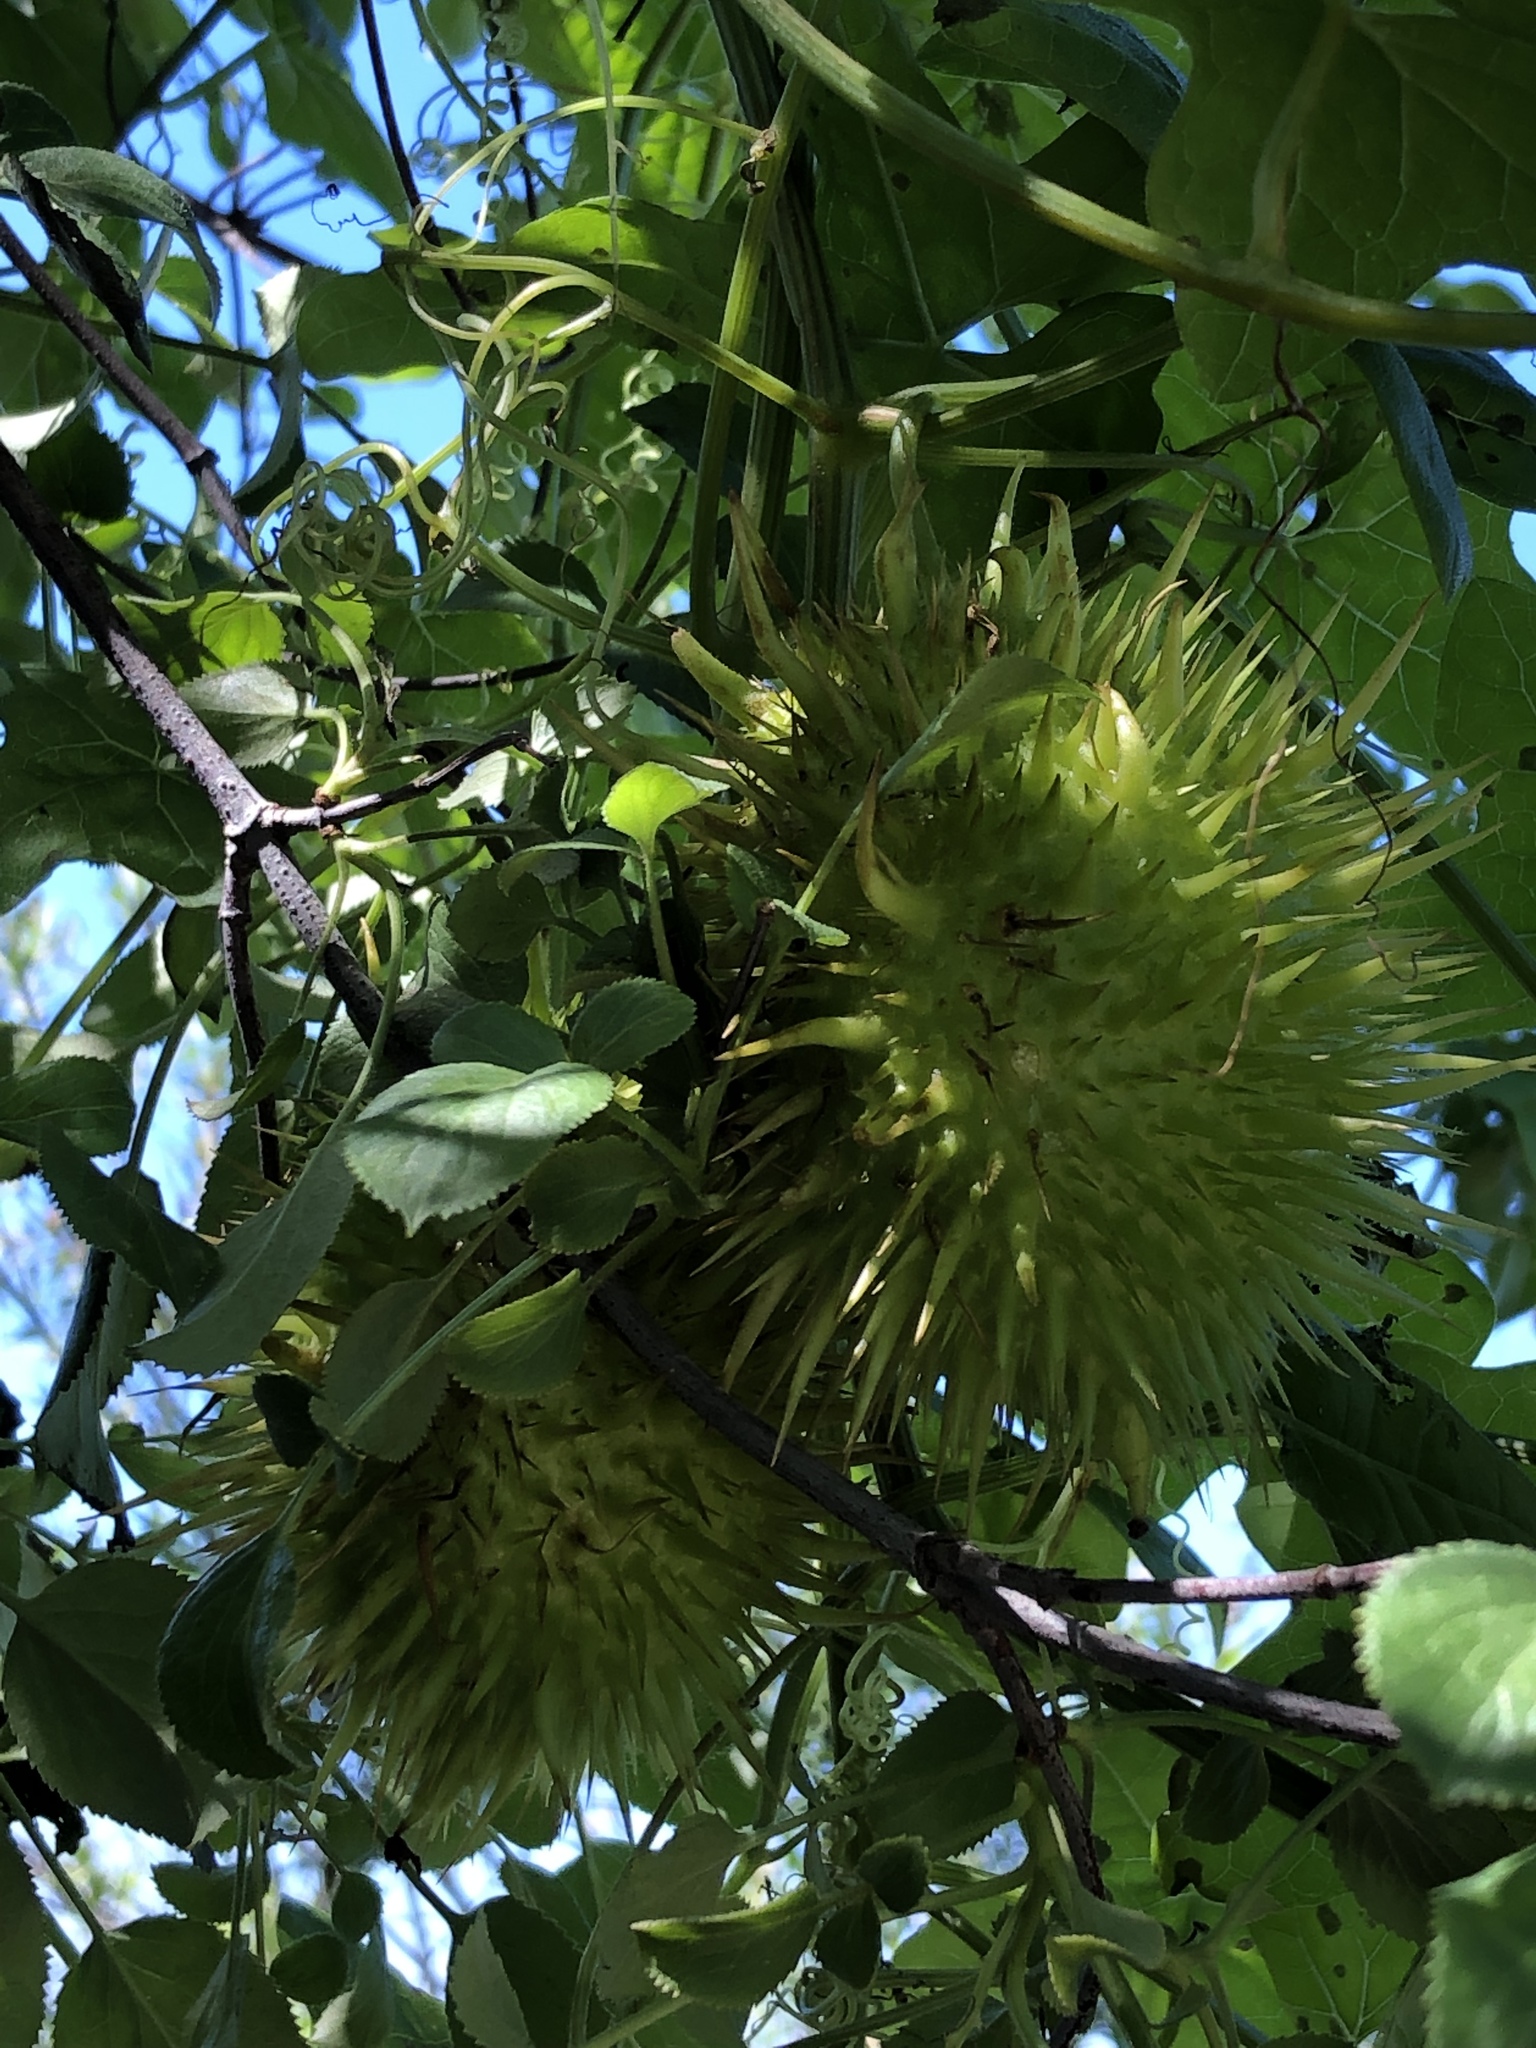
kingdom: Plantae
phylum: Tracheophyta
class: Magnoliopsida
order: Cucurbitales
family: Cucurbitaceae
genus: Marah
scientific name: Marah macrocarpa
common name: Cucamonga manroot
